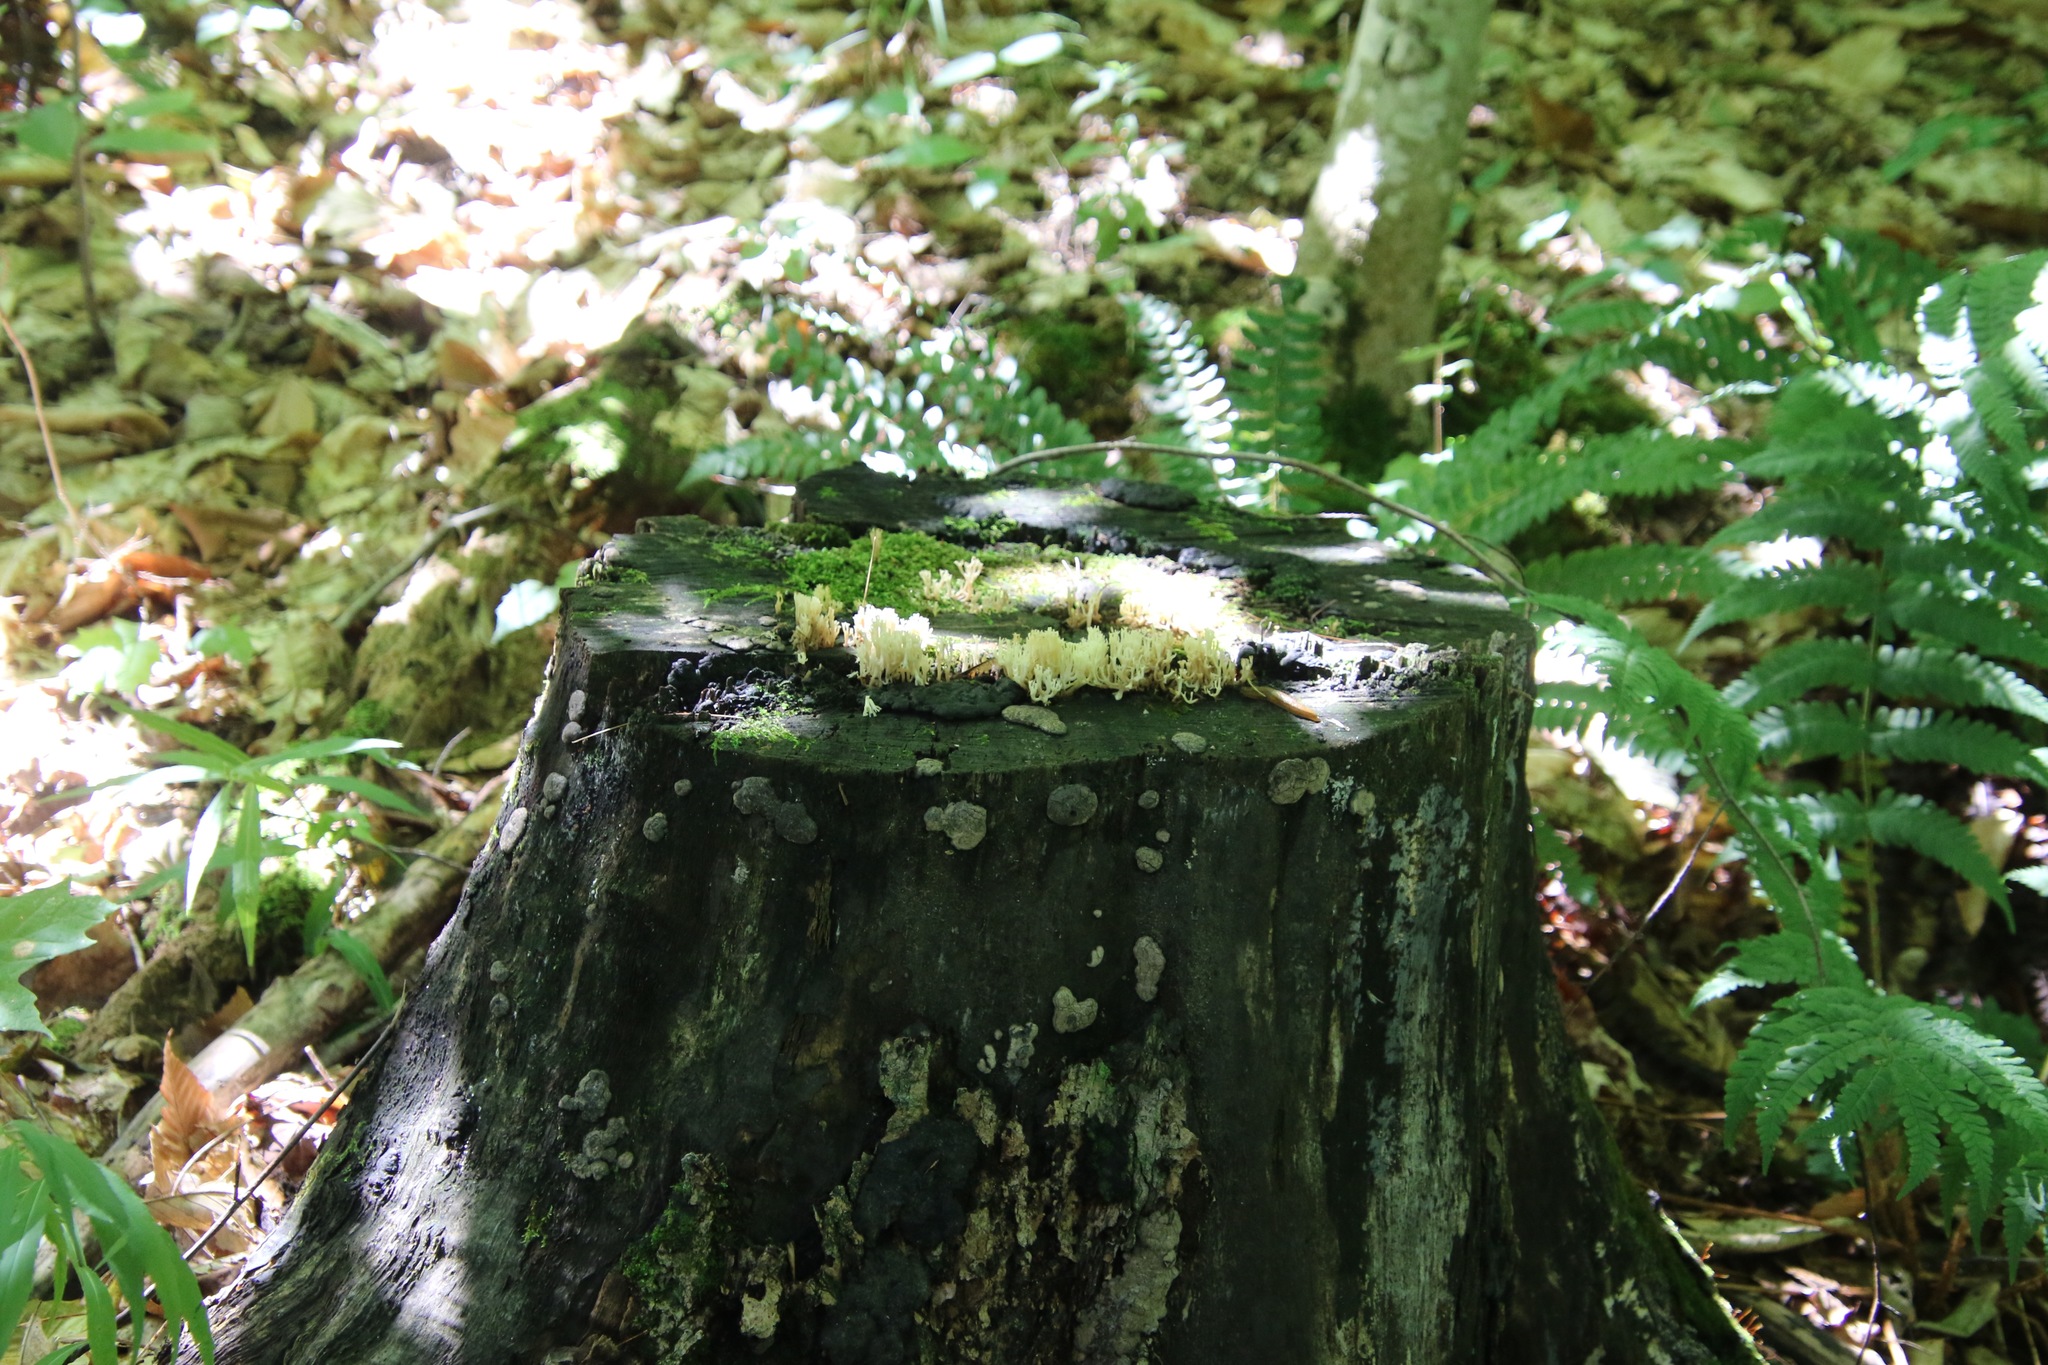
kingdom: Fungi
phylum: Basidiomycota
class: Agaricomycetes
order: Russulales
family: Auriscalpiaceae
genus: Artomyces
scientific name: Artomyces pyxidatus
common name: Crown-tipped coral fungus
